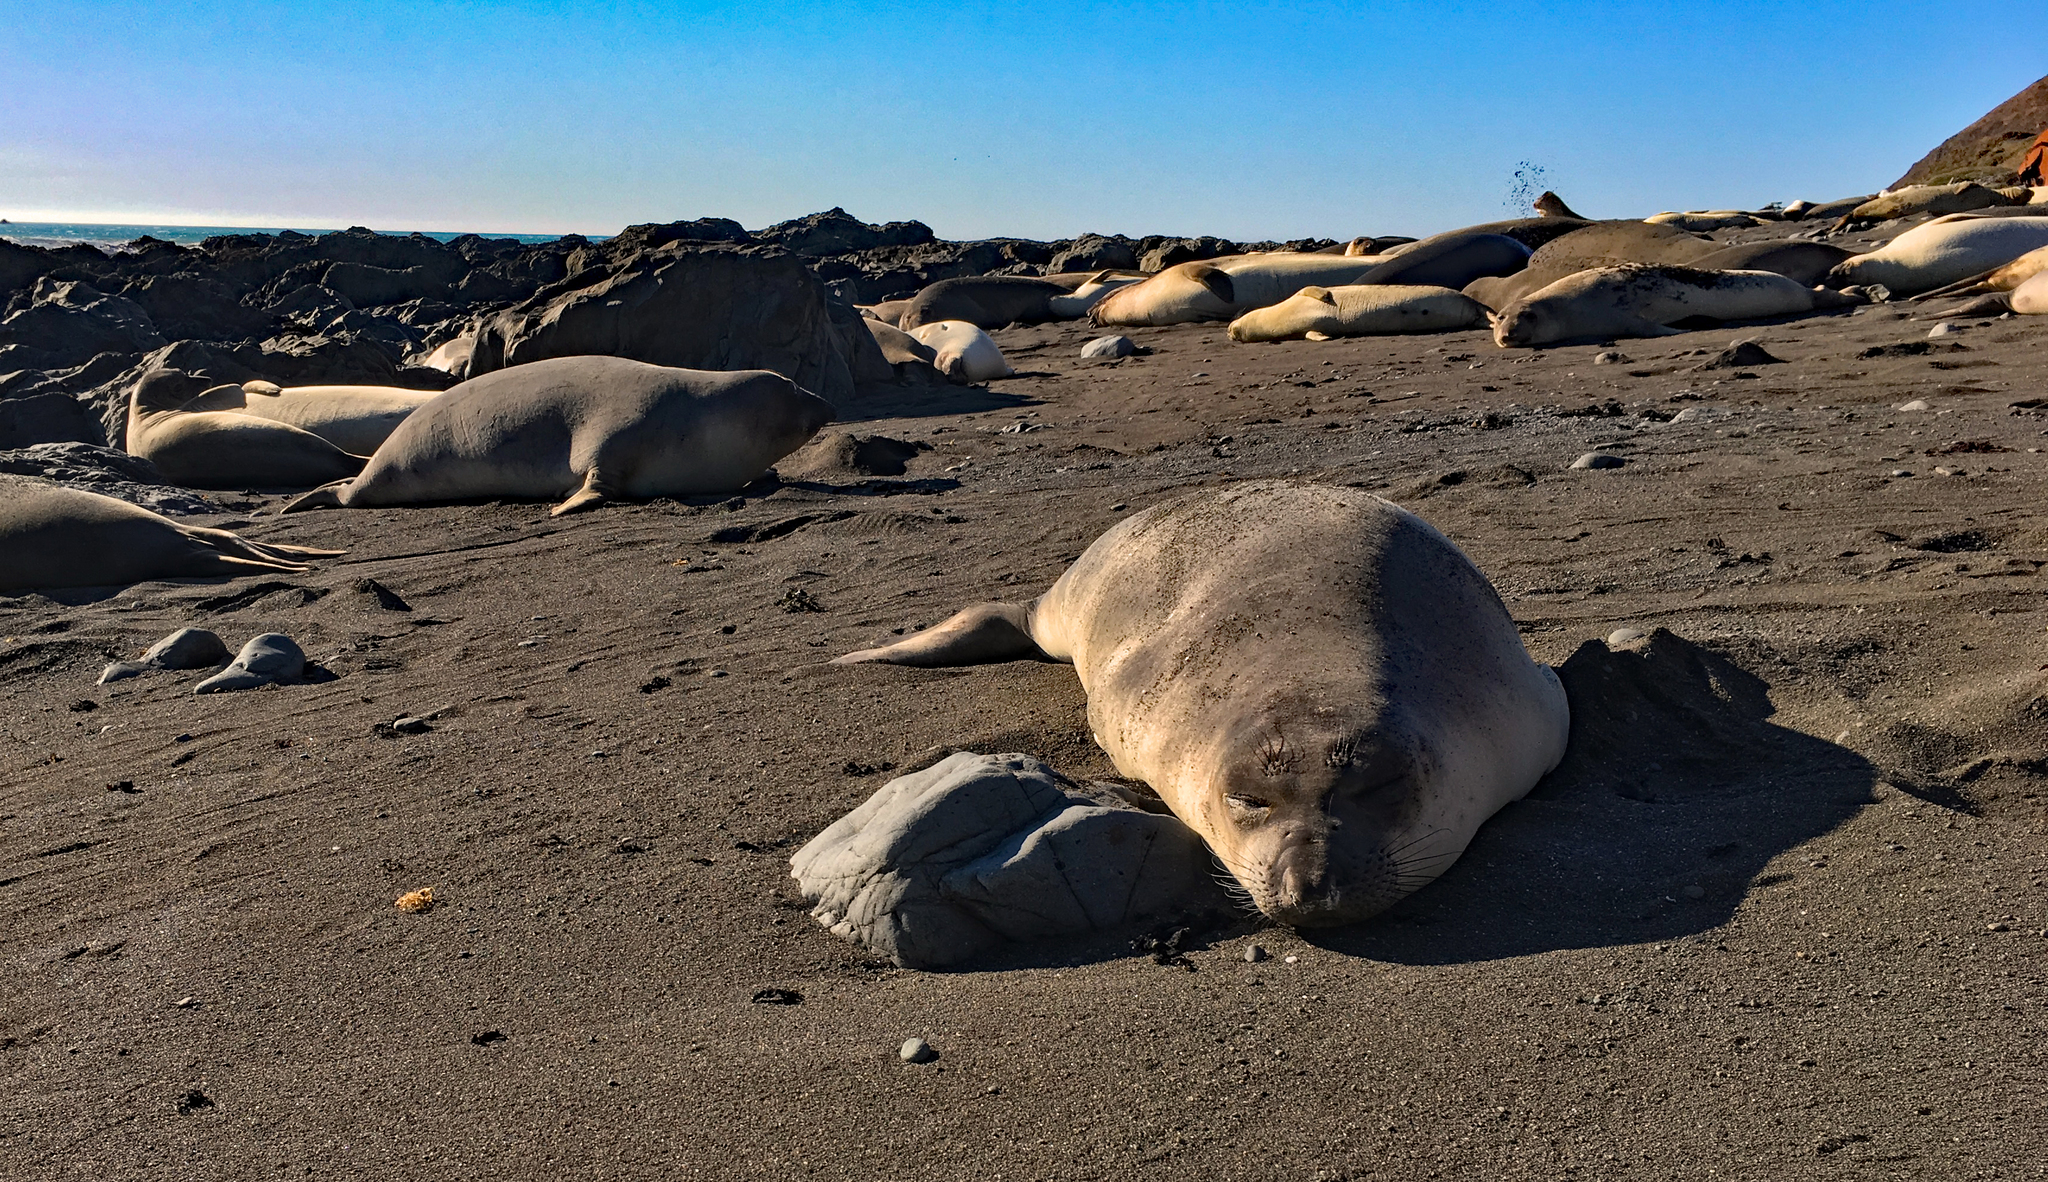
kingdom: Animalia
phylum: Chordata
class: Mammalia
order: Carnivora
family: Phocidae
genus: Mirounga
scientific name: Mirounga angustirostris
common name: Northern elephant seal
